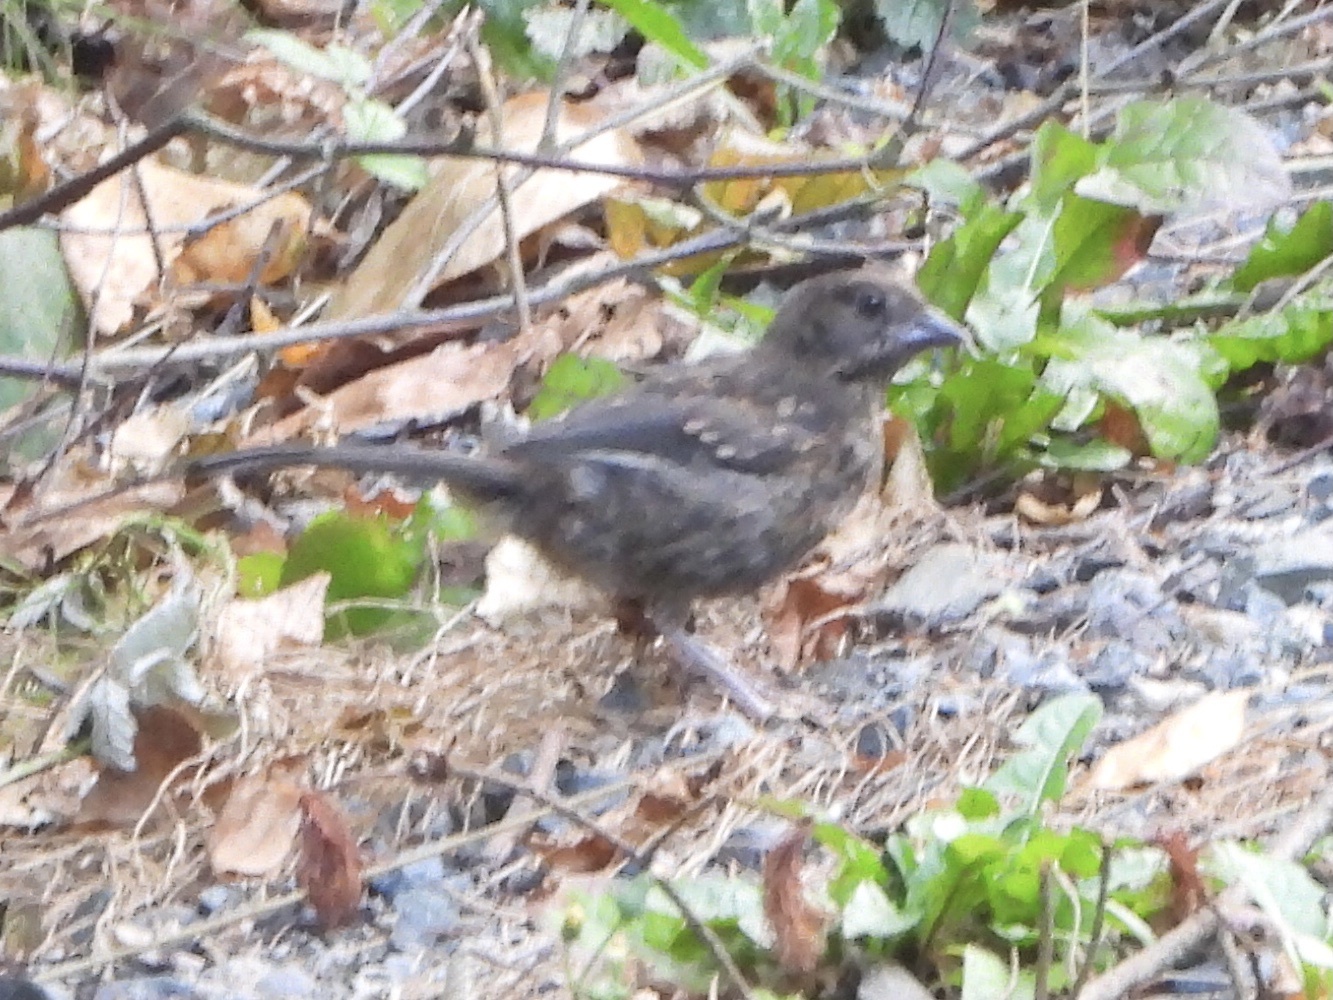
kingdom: Animalia
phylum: Chordata
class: Aves
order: Passeriformes
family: Passerellidae
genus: Pipilo
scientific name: Pipilo maculatus
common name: Spotted towhee
